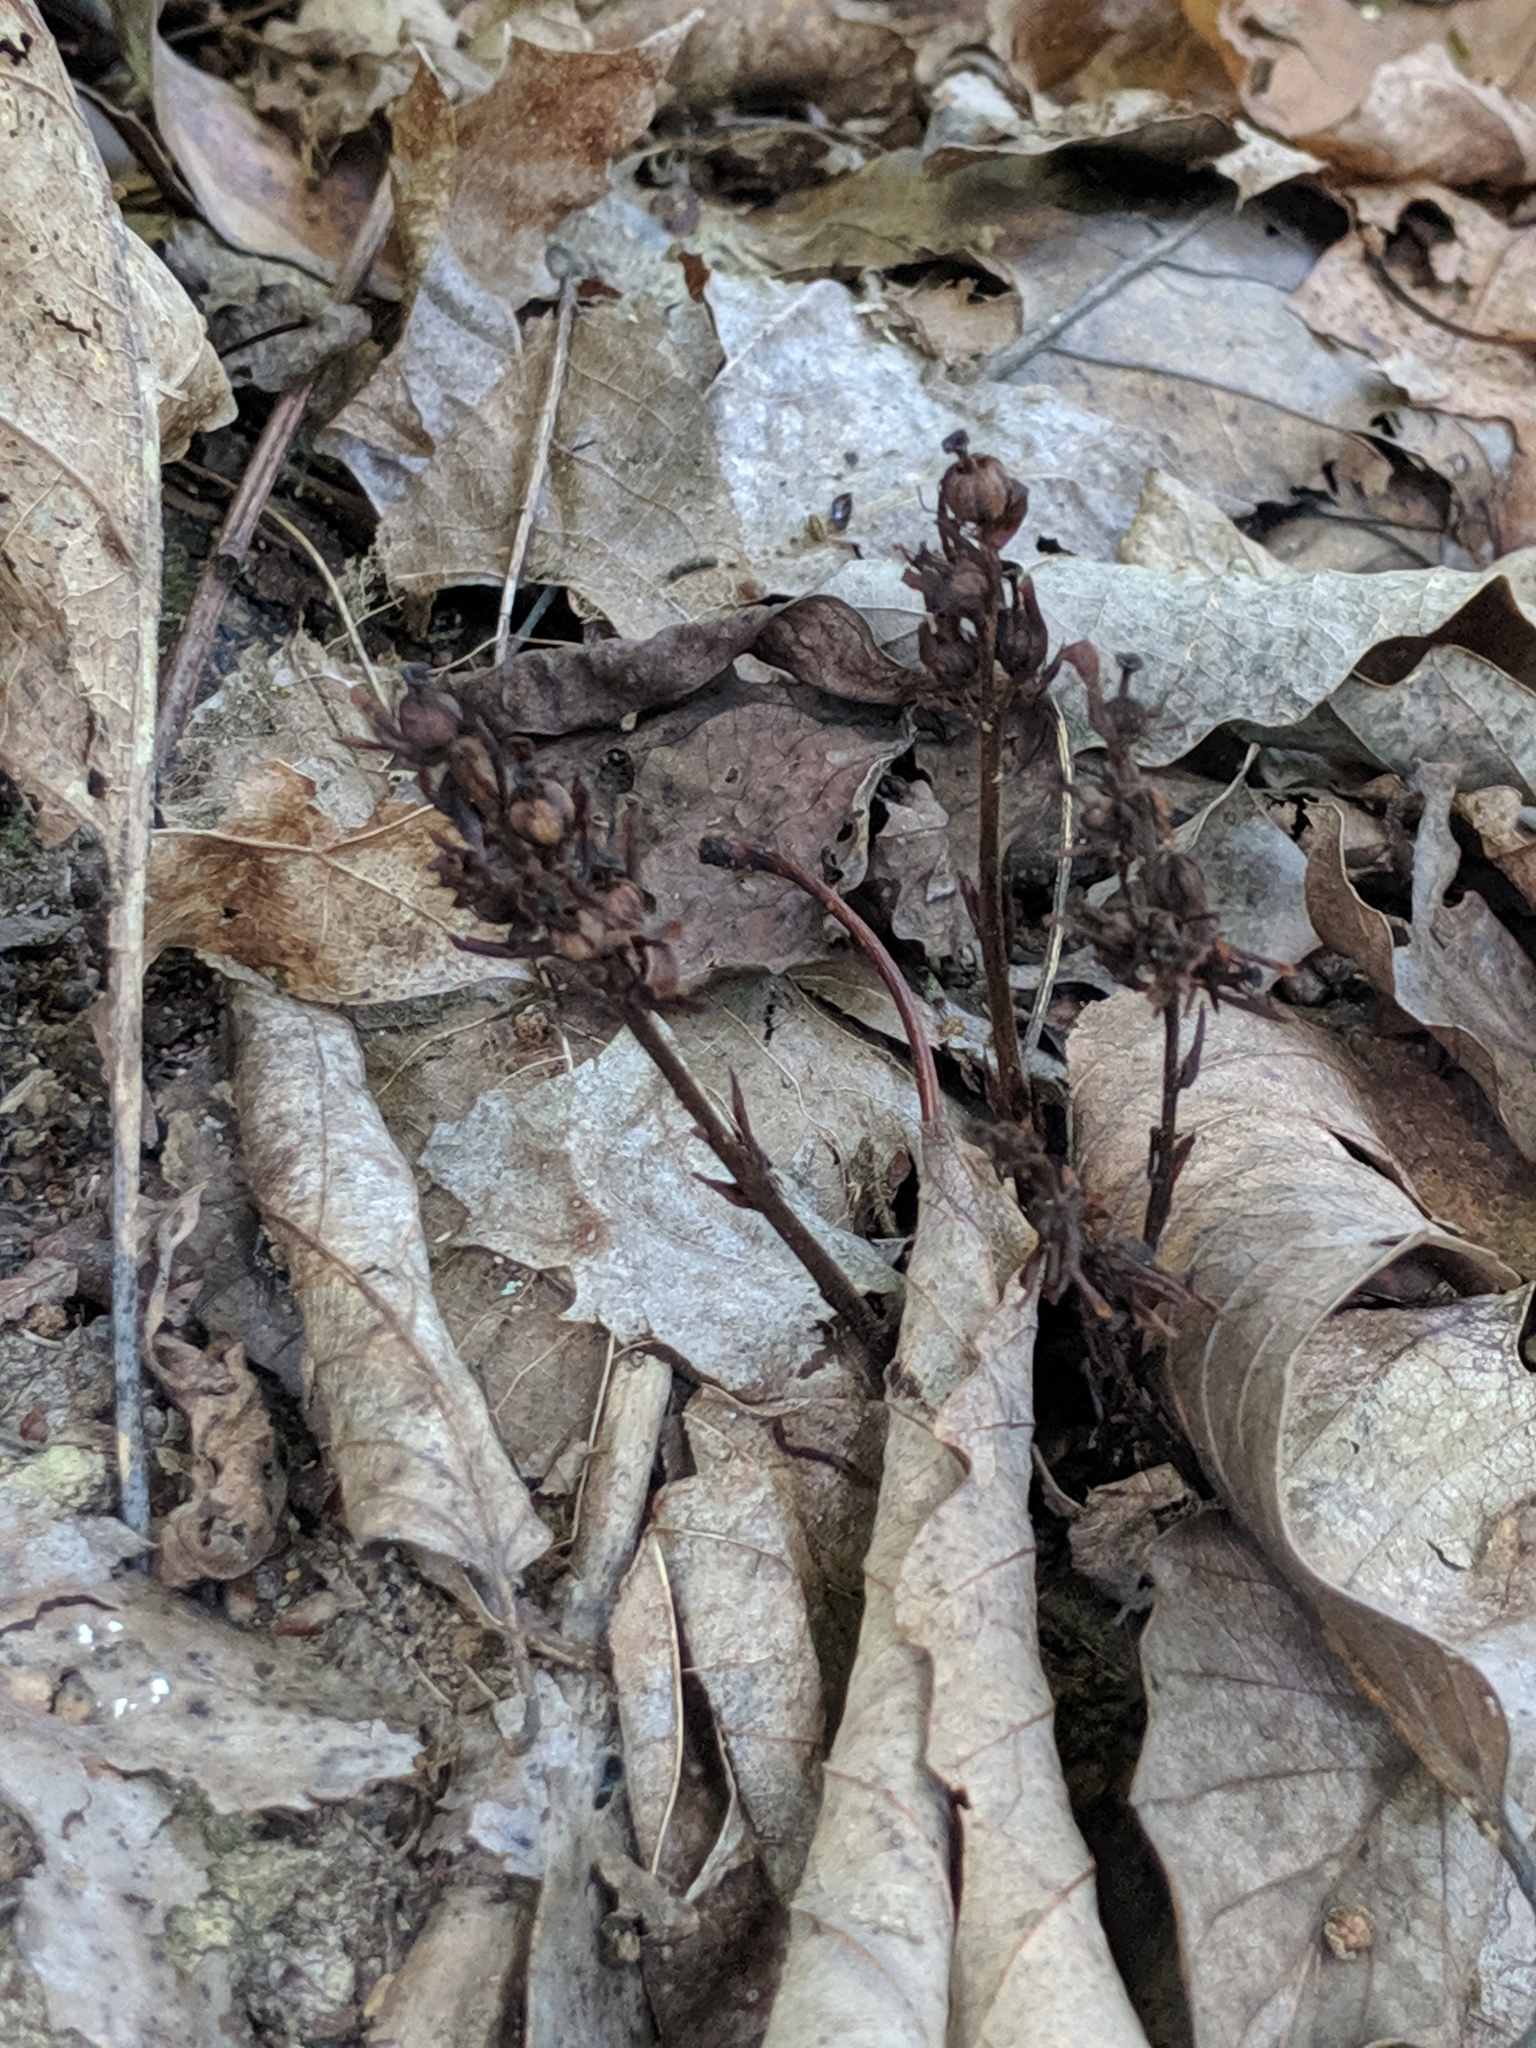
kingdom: Plantae
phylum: Tracheophyta
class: Magnoliopsida
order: Ericales
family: Ericaceae
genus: Hypopitys
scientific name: Hypopitys monotropa
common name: Yellow bird's-nest
